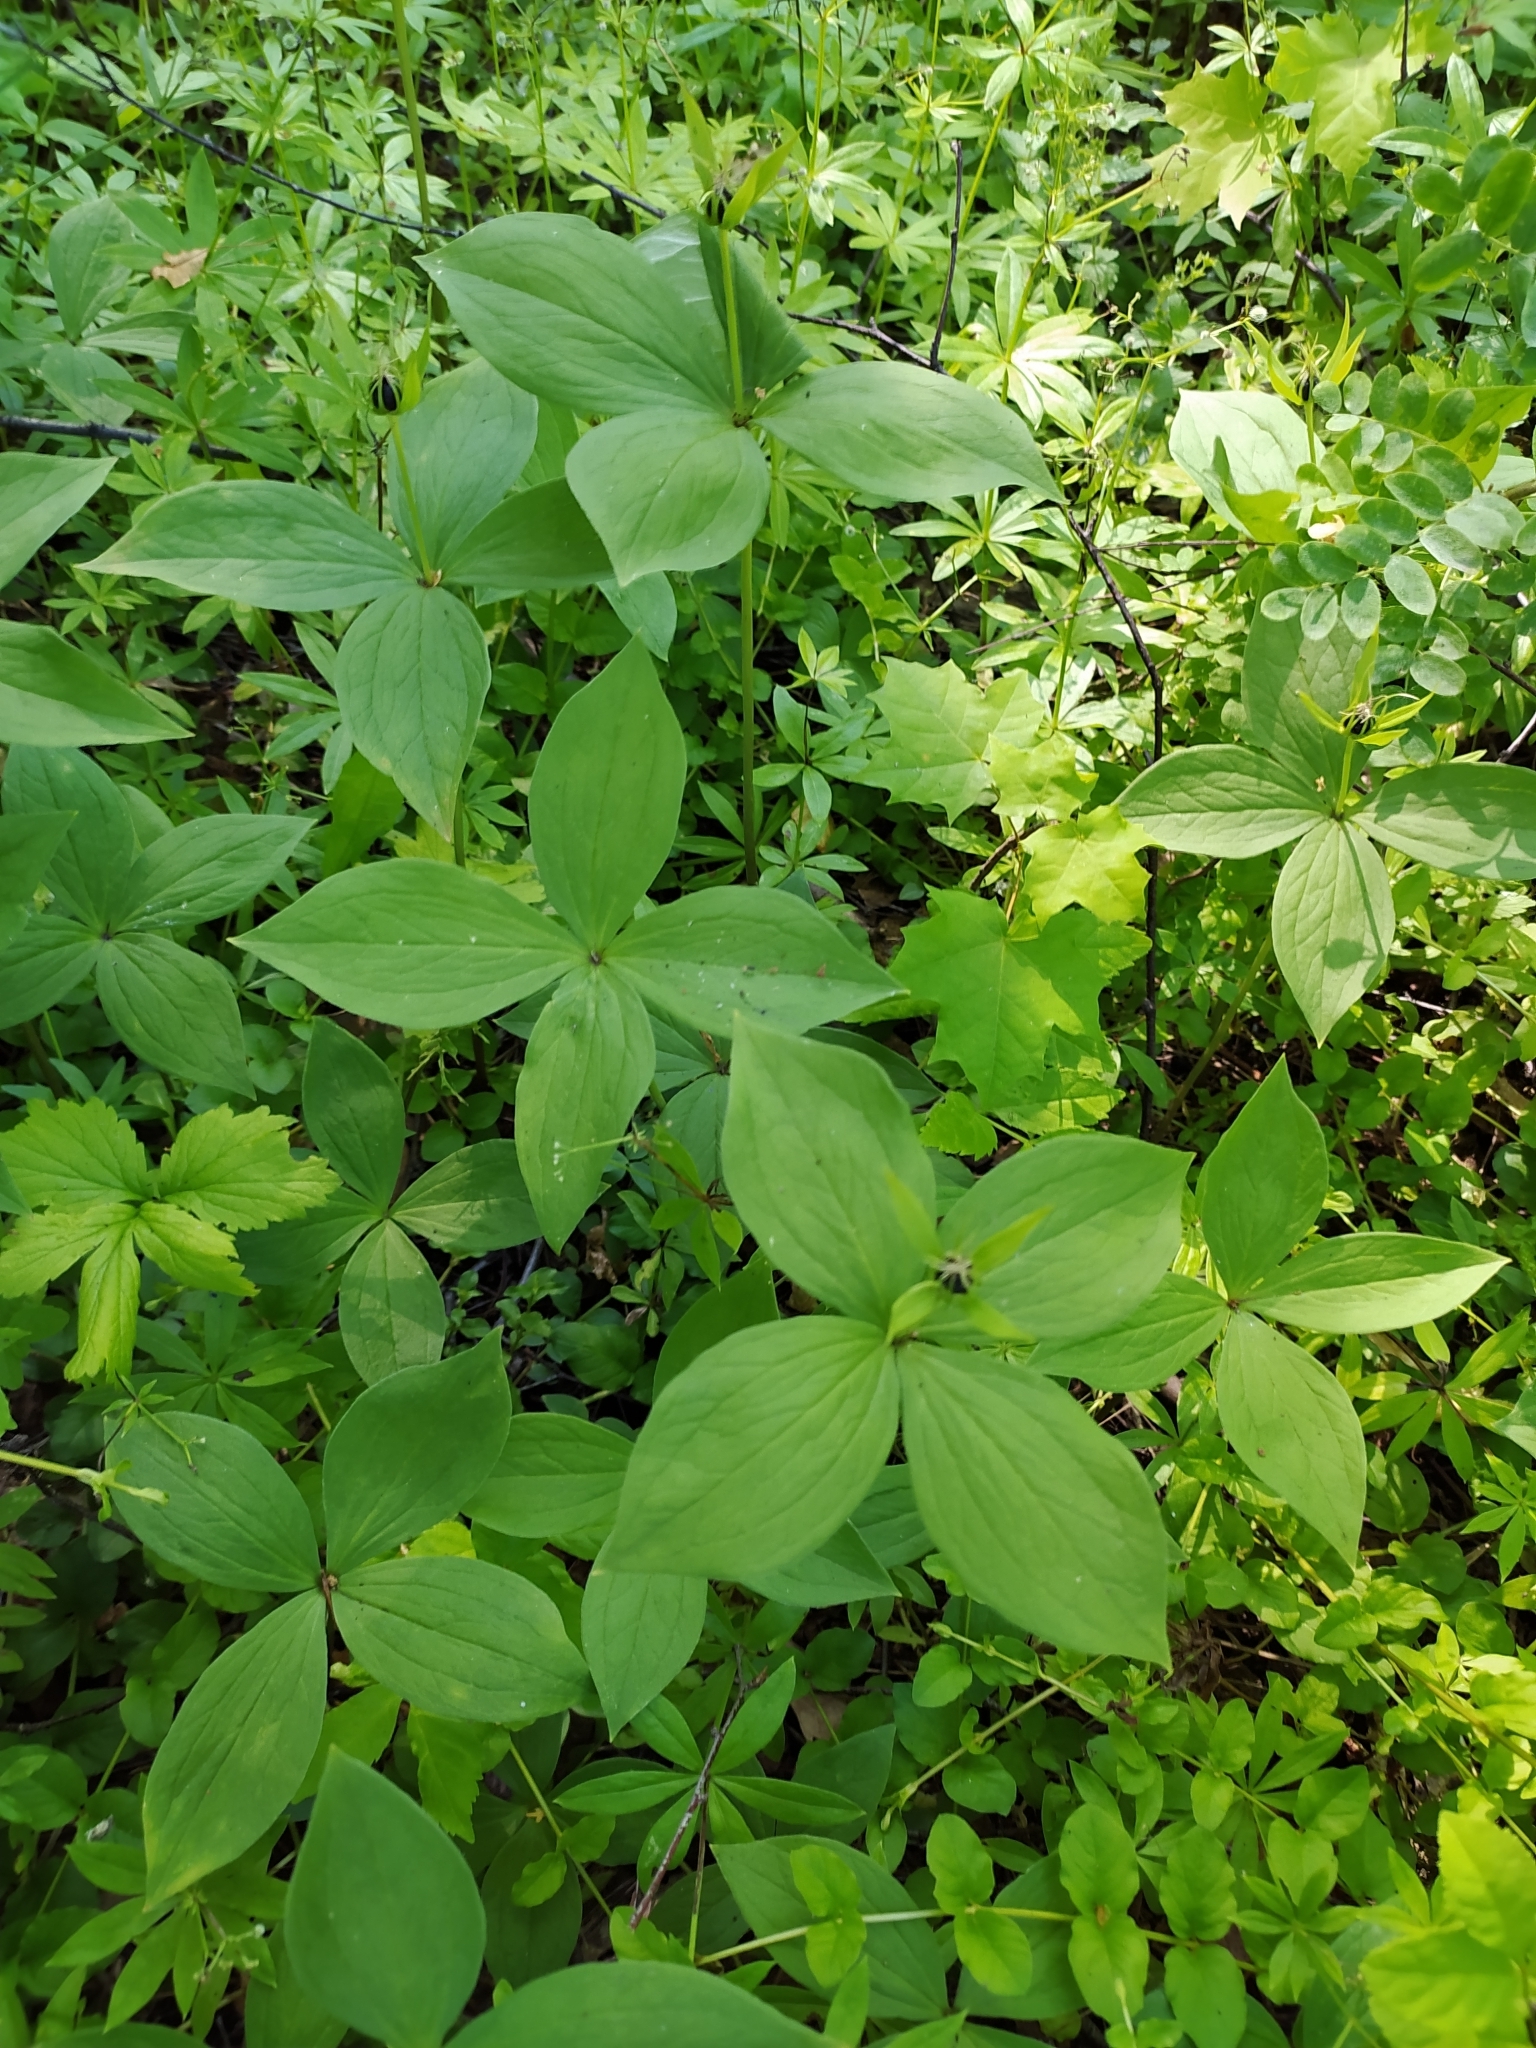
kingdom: Plantae
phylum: Tracheophyta
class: Liliopsida
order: Liliales
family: Melanthiaceae
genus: Paris
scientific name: Paris quadrifolia
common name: Herb-paris
